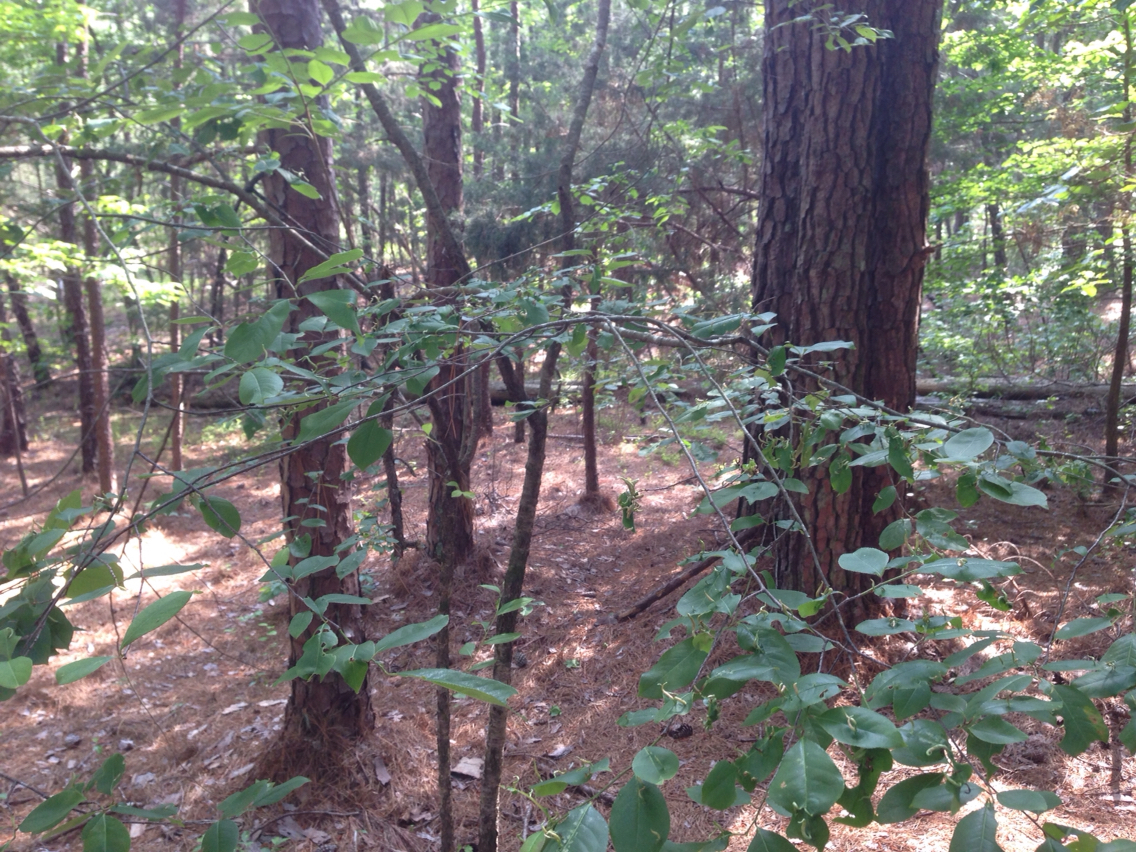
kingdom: Animalia
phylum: Arthropoda
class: Arachnida
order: Trombidiformes
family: Eriophyidae
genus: Eriophyes
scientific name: Eriophyes
